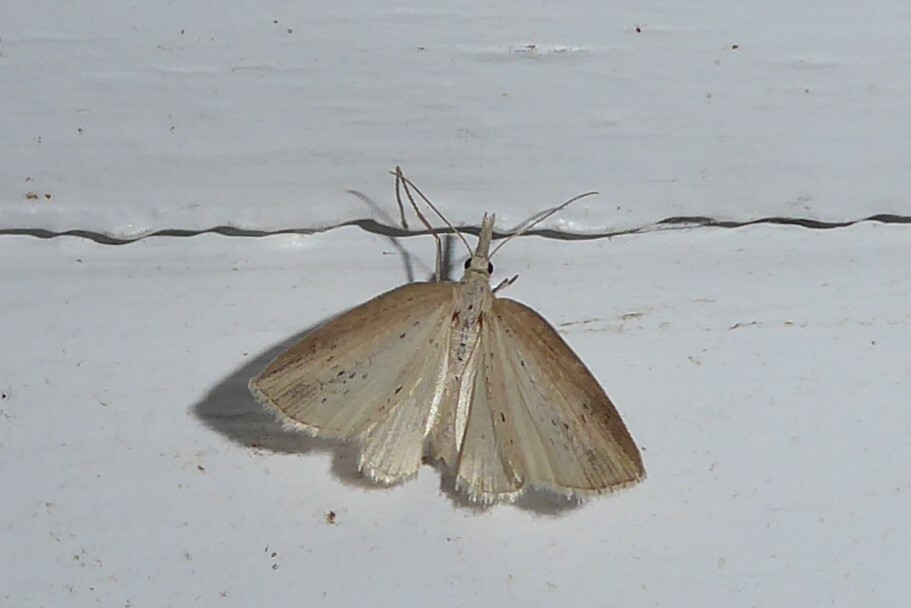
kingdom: Animalia
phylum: Arthropoda
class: Insecta
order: Lepidoptera
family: Geometridae
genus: Microdes
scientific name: Microdes epicryptis
